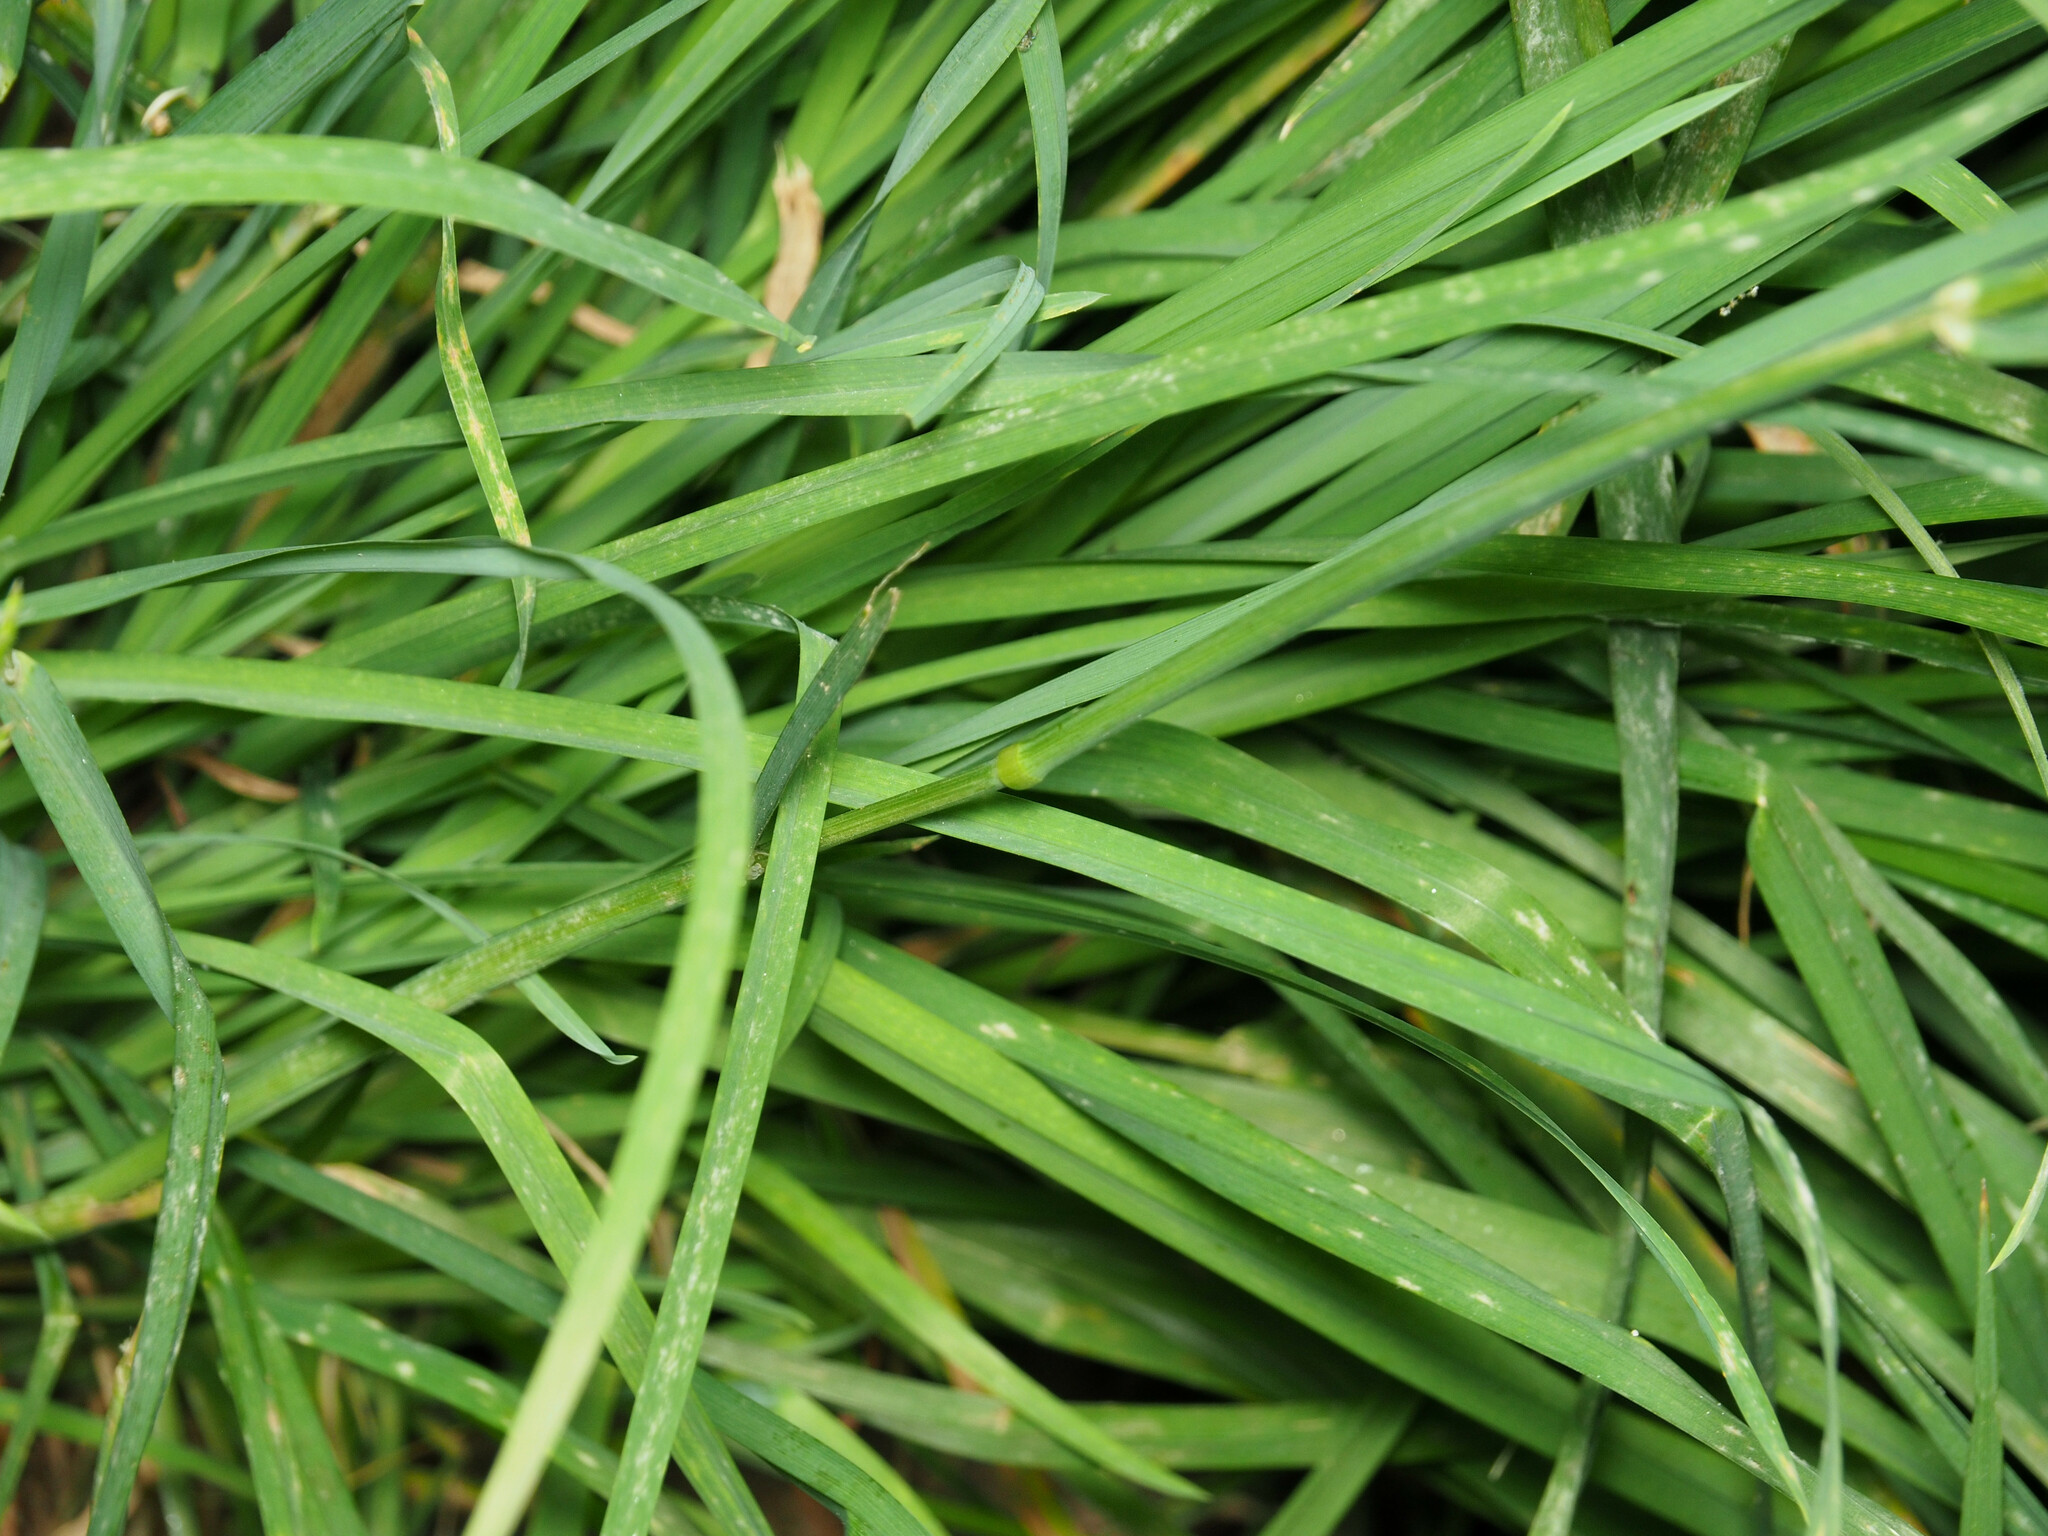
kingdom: Plantae
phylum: Tracheophyta
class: Liliopsida
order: Poales
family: Poaceae
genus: Dactylis
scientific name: Dactylis glomerata
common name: Orchardgrass
